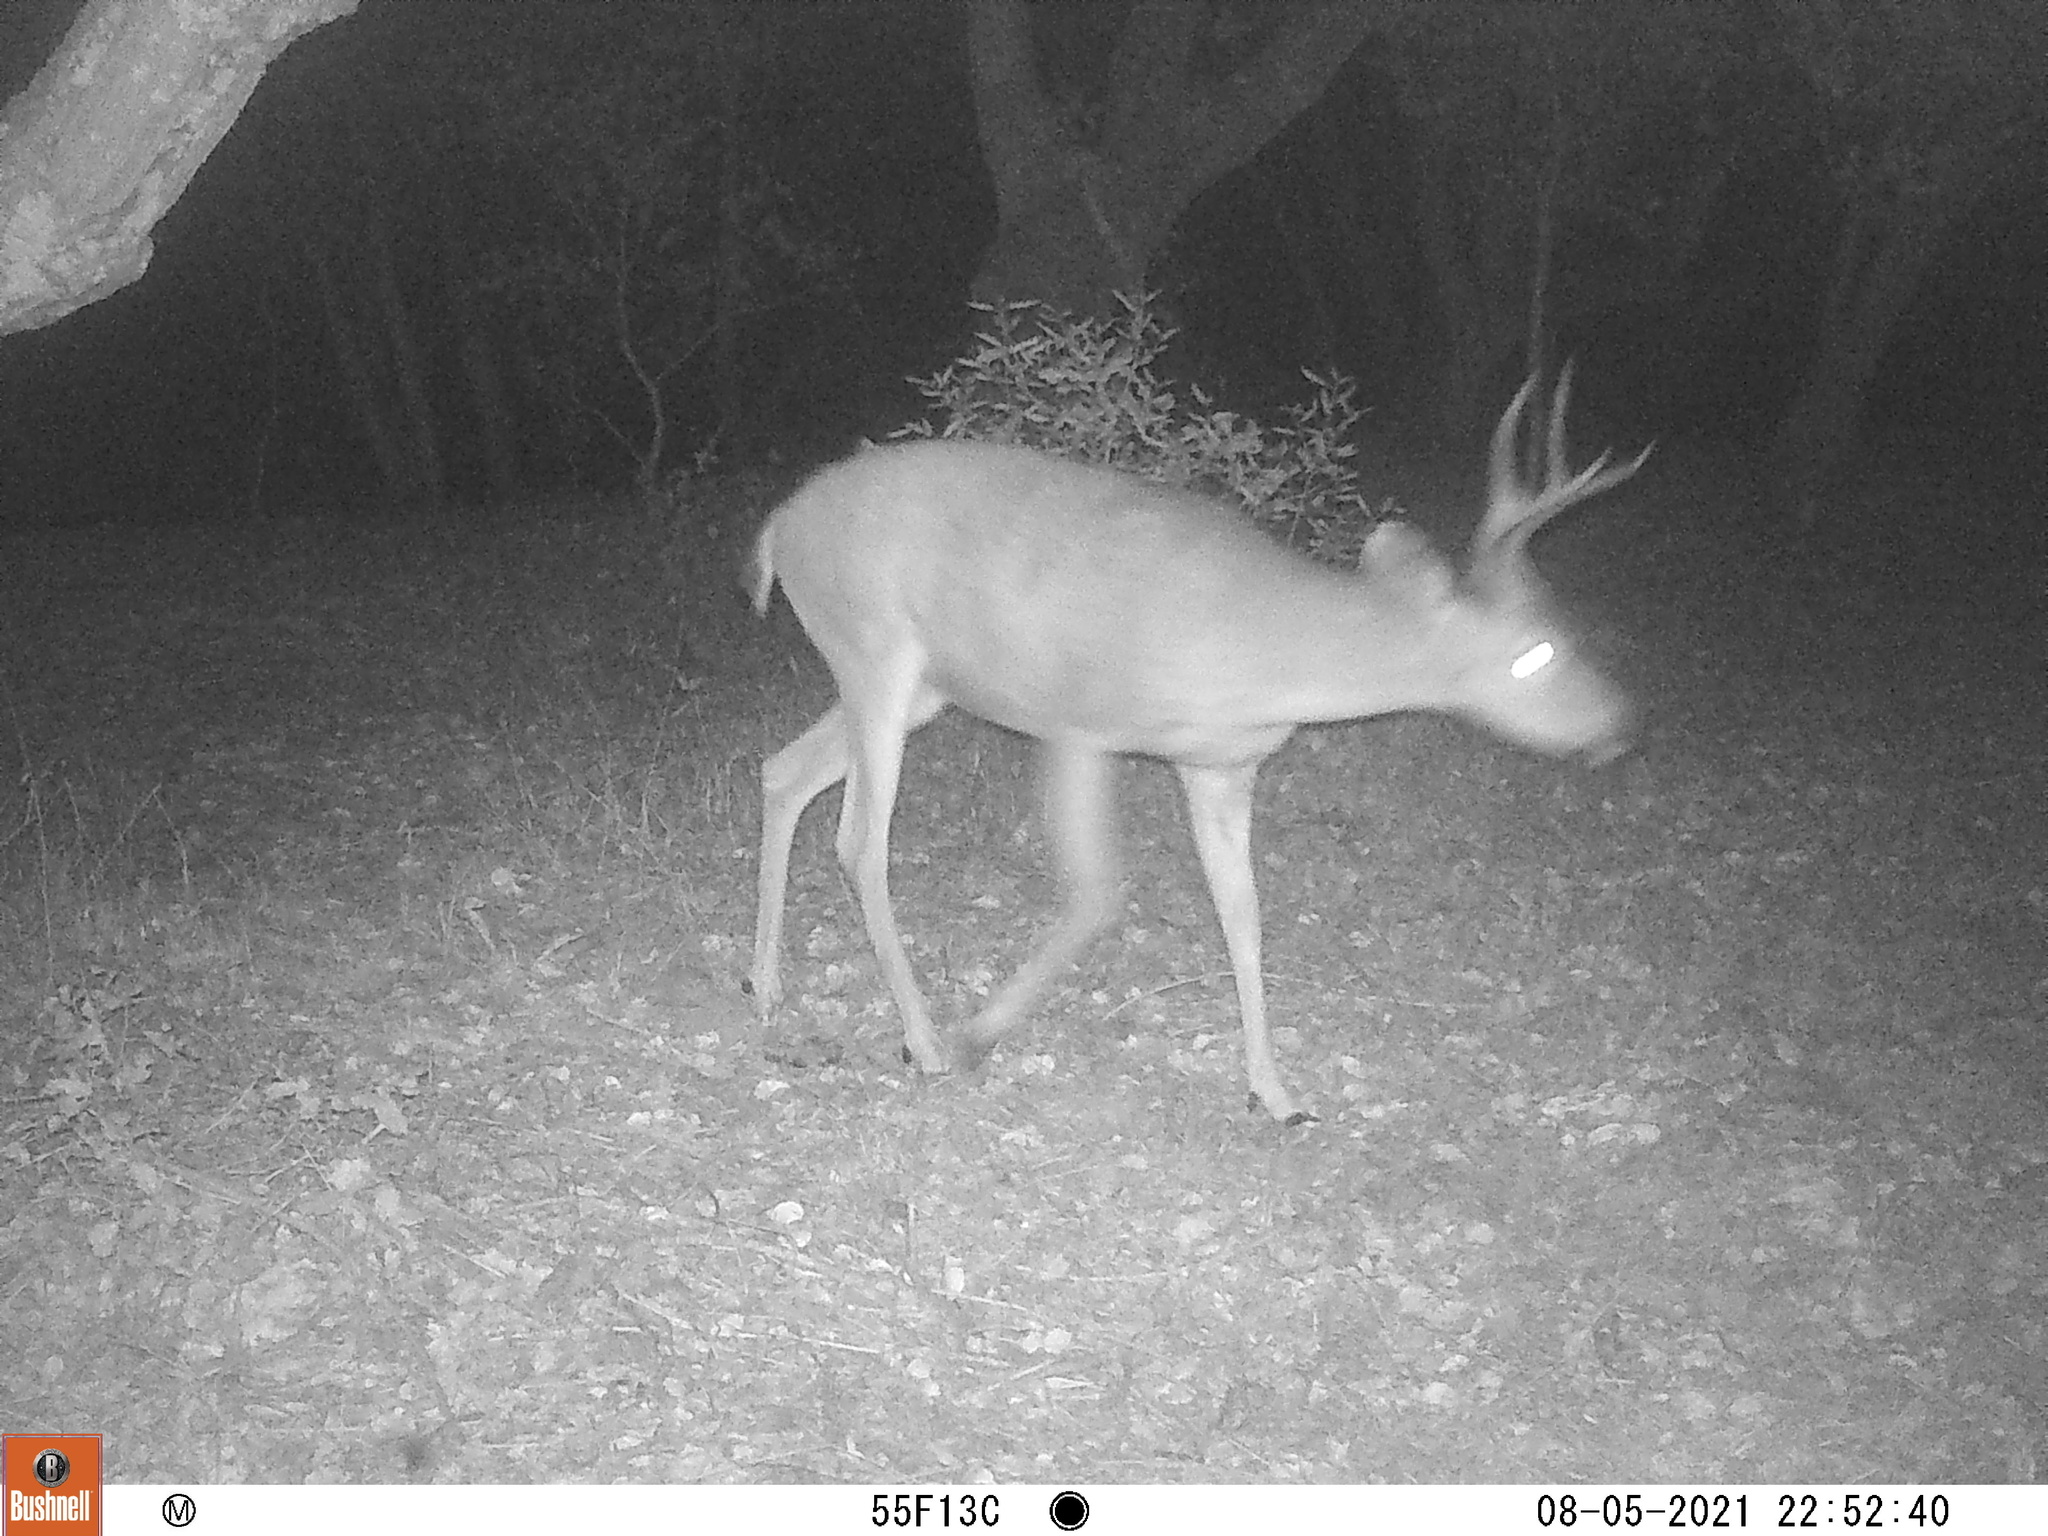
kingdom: Animalia
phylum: Chordata
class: Mammalia
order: Artiodactyla
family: Cervidae
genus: Odocoileus
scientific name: Odocoileus hemionus
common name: Mule deer
